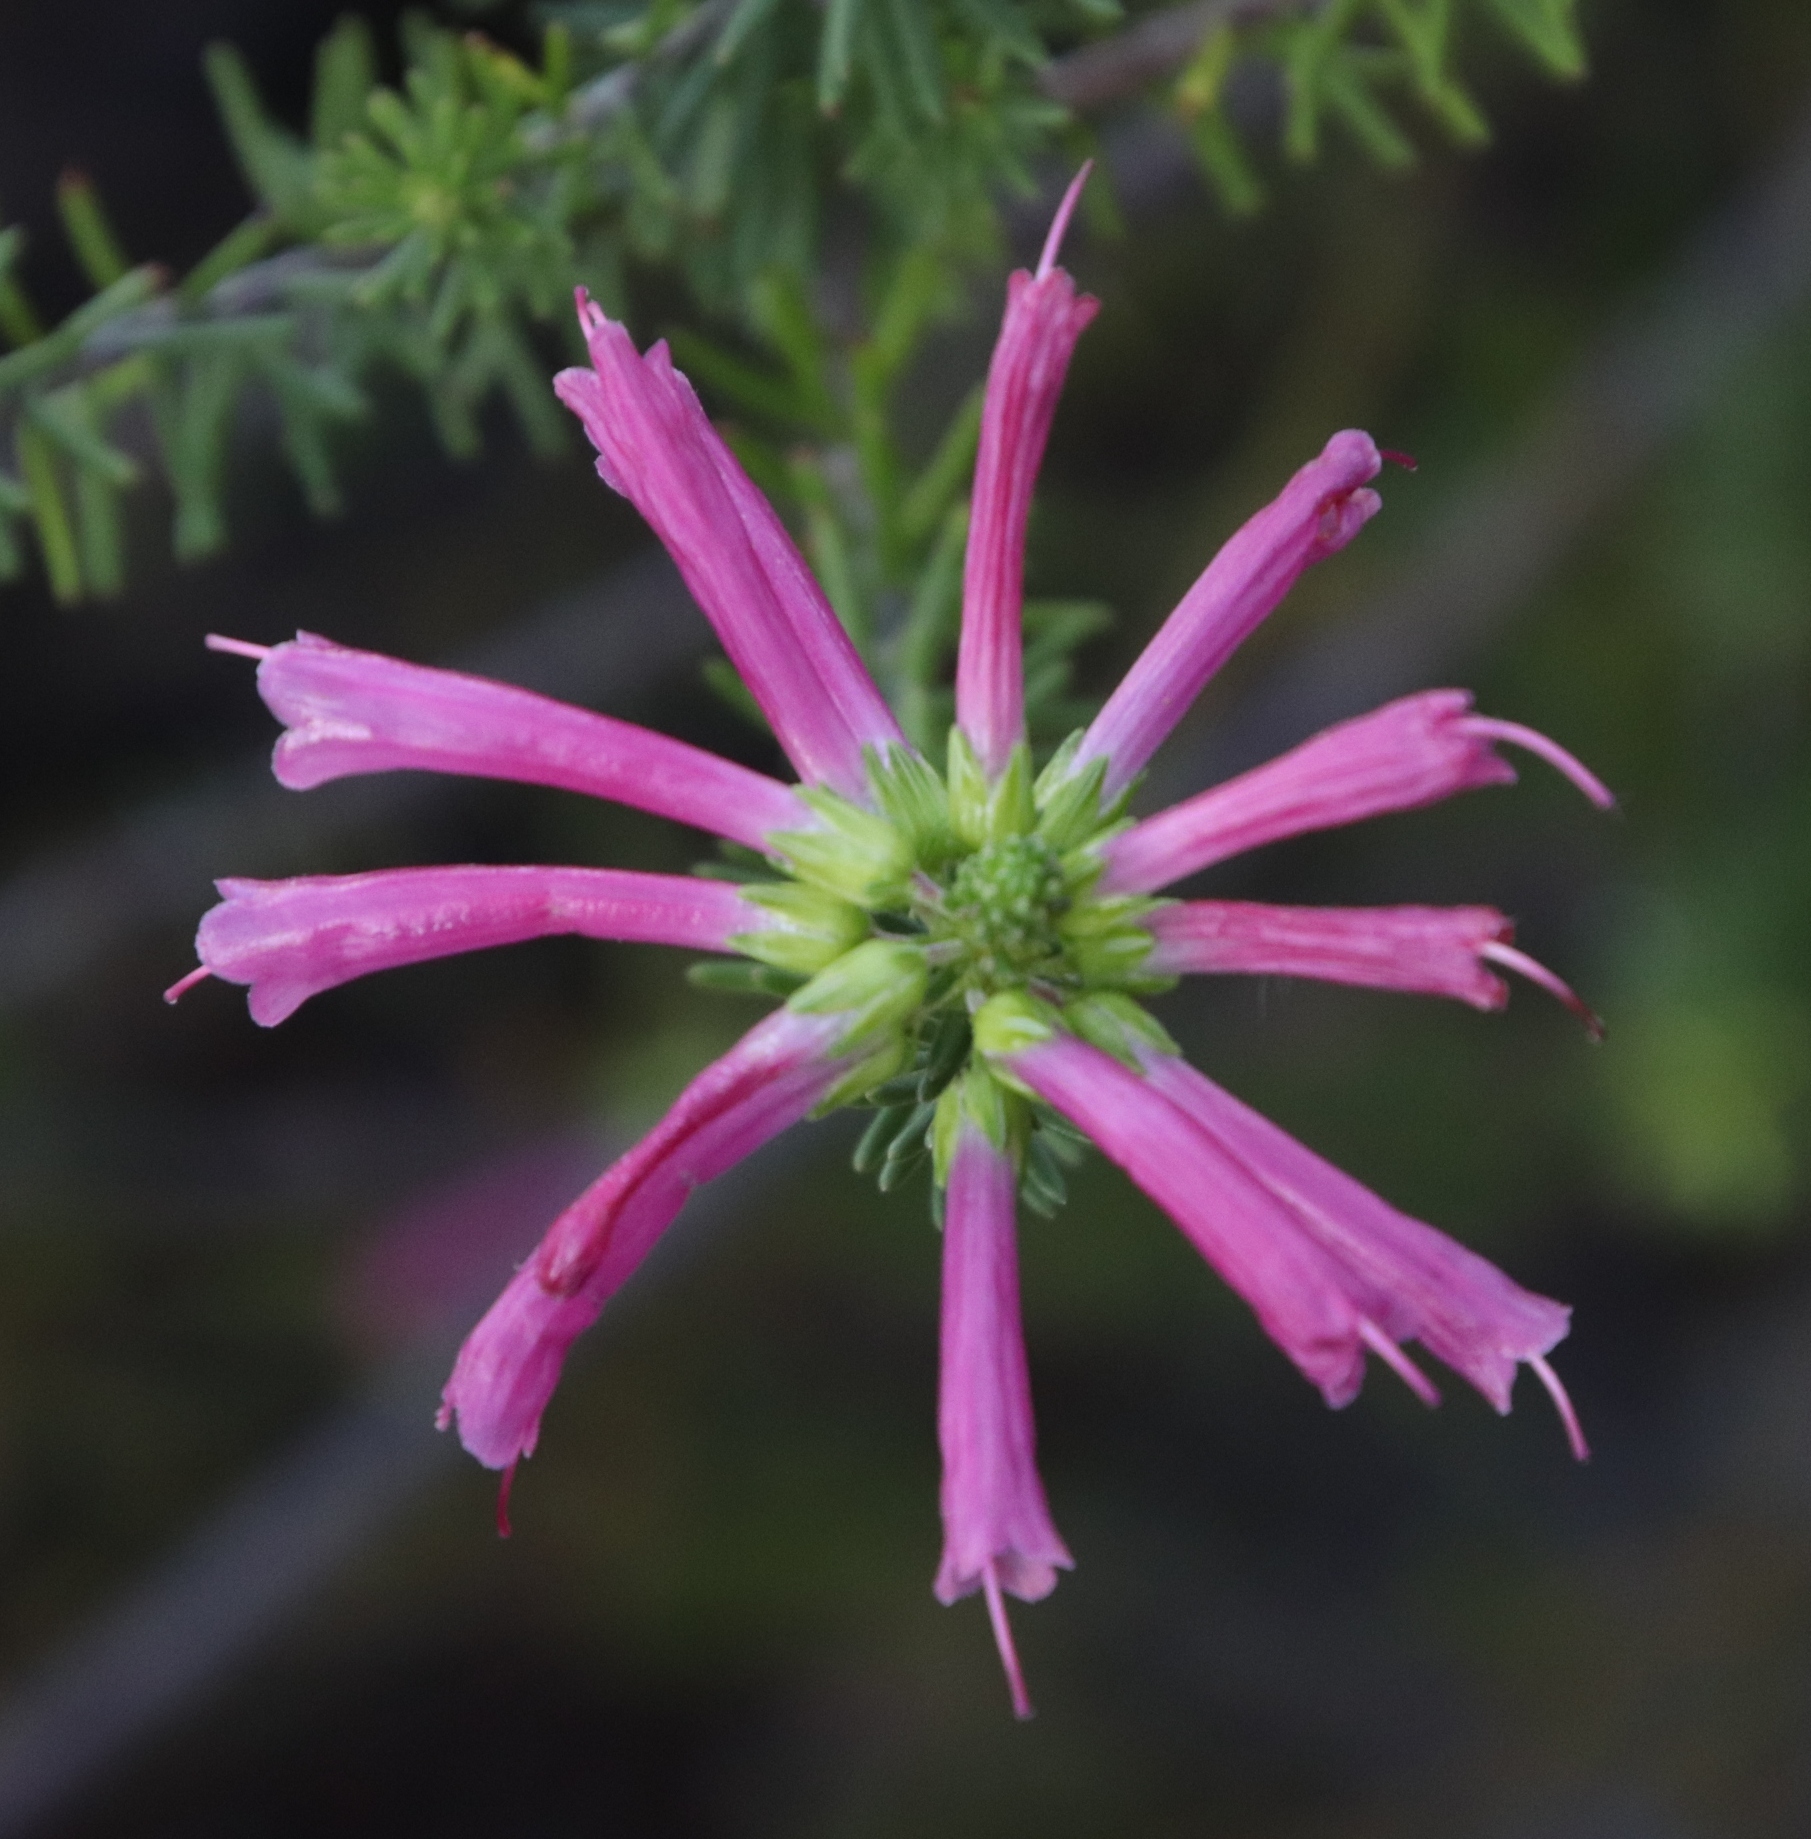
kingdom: Plantae
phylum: Tracheophyta
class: Magnoliopsida
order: Ericales
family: Ericaceae
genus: Erica
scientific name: Erica abietina
